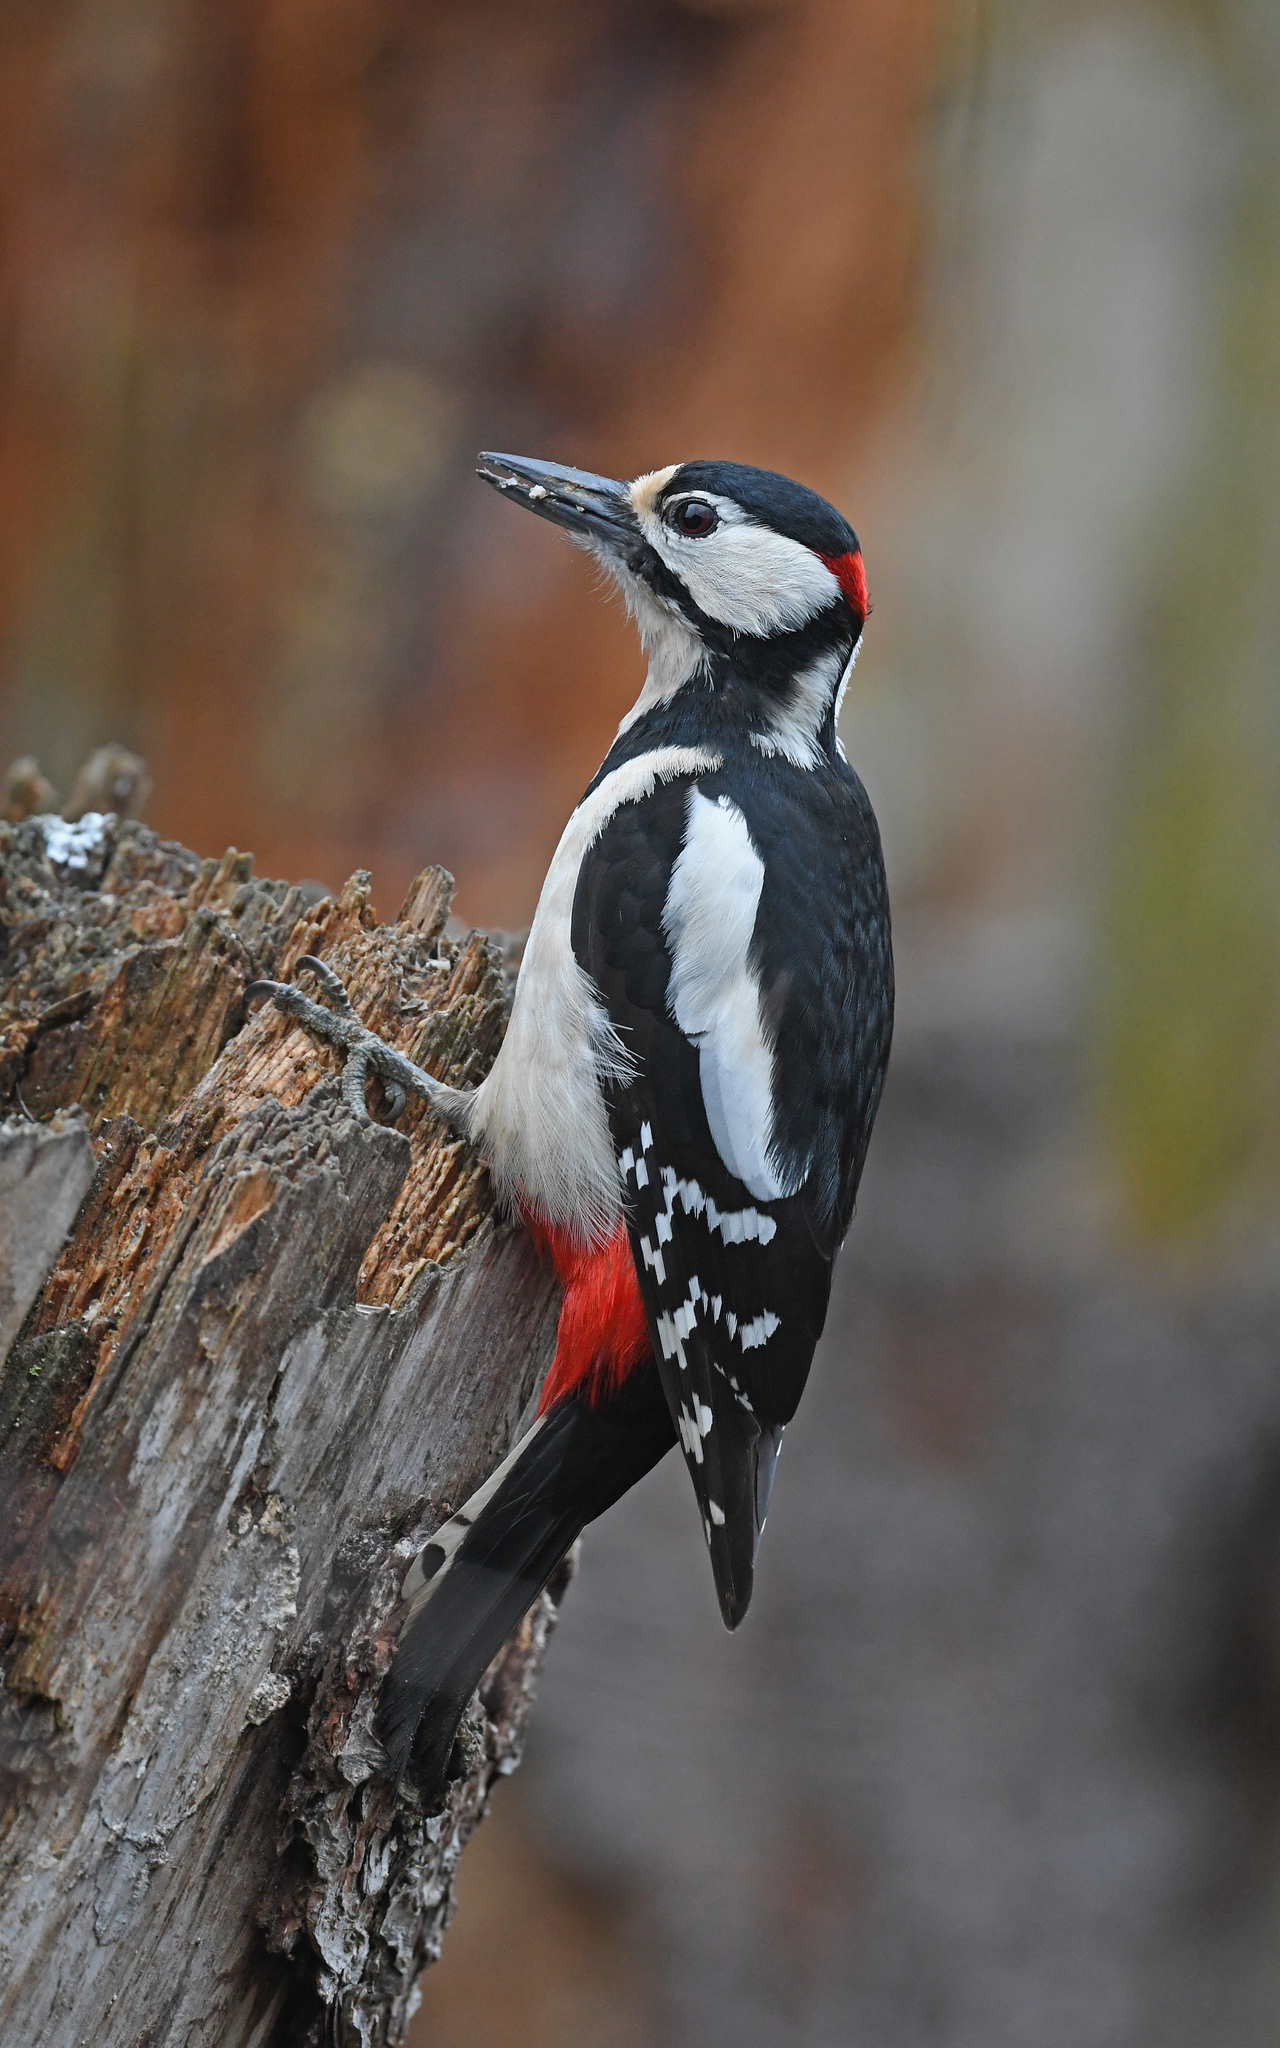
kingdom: Animalia
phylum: Chordata
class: Aves
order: Piciformes
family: Picidae
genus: Dendrocopos
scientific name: Dendrocopos major
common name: Great spotted woodpecker
